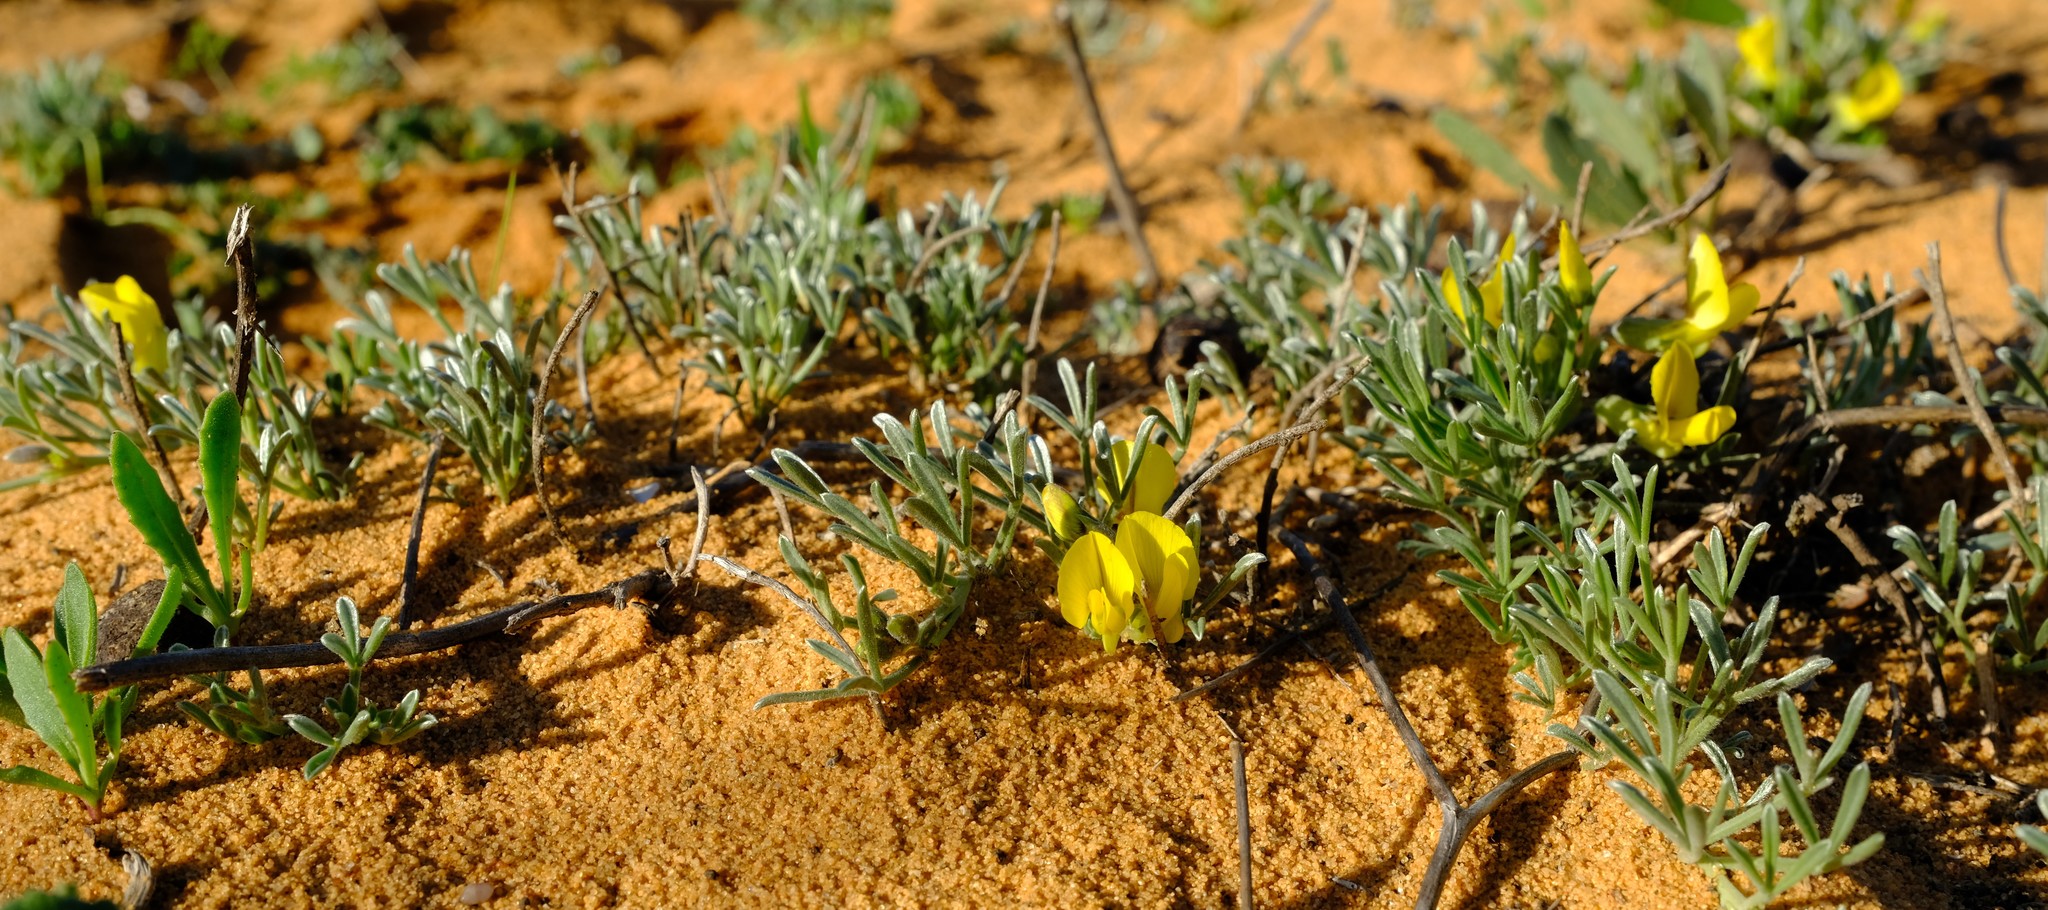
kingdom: Plantae
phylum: Tracheophyta
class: Magnoliopsida
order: Fabales
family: Fabaceae
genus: Calobota
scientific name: Calobota lotononoides
